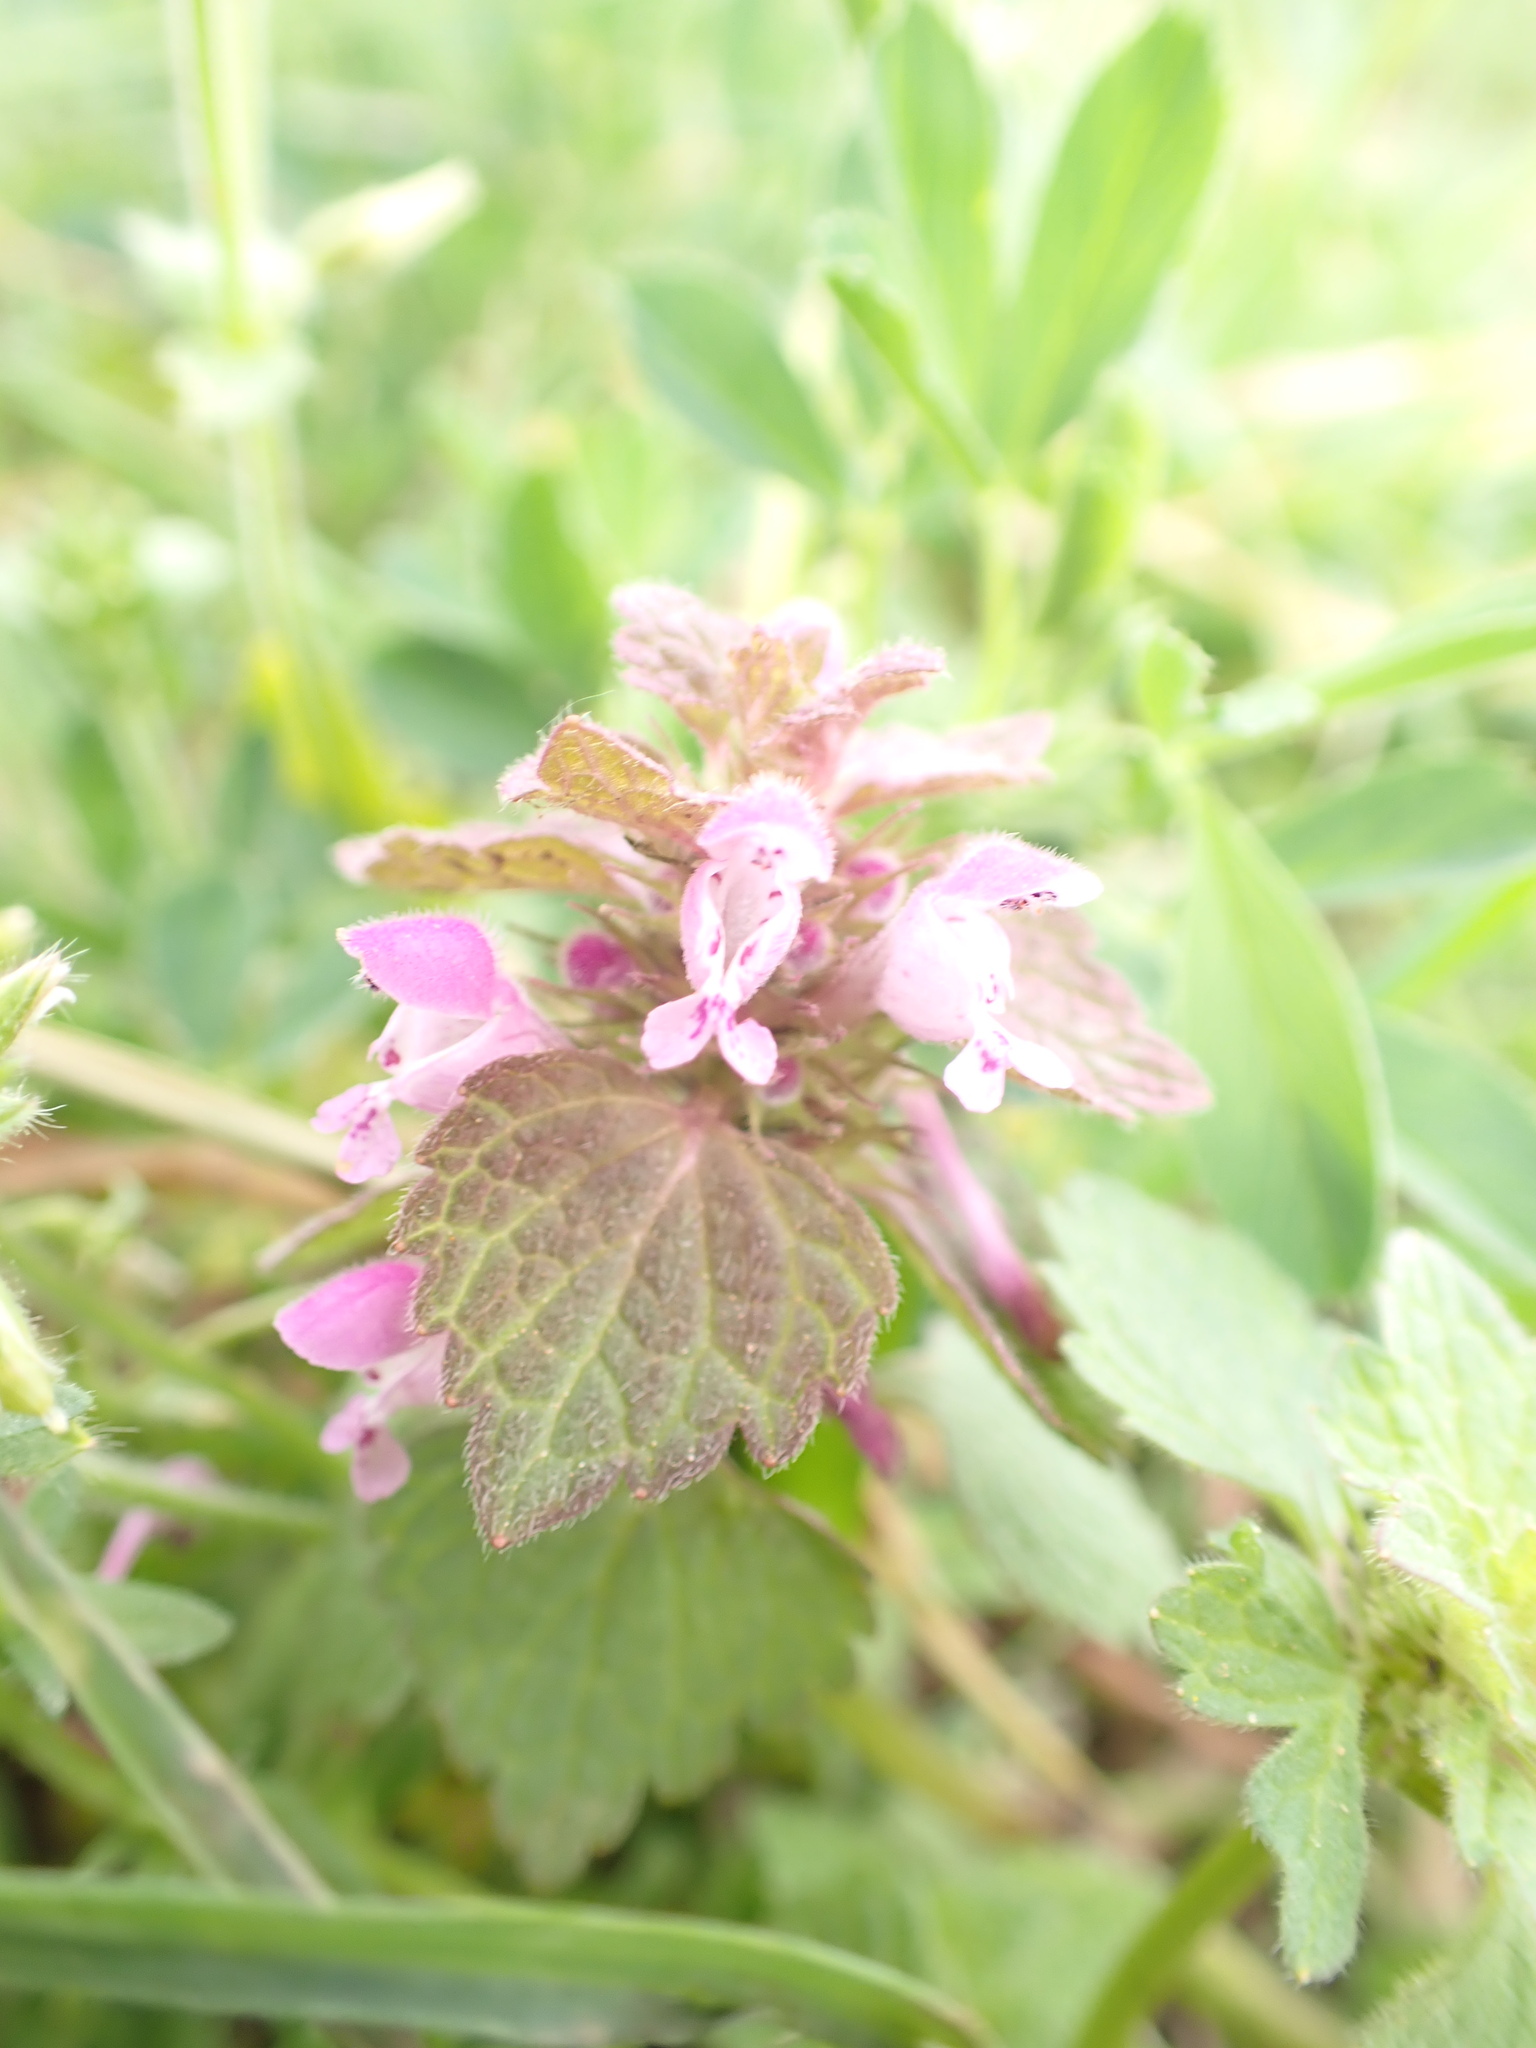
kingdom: Plantae
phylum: Tracheophyta
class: Magnoliopsida
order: Lamiales
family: Lamiaceae
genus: Lamium
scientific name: Lamium purpureum
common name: Red dead-nettle
